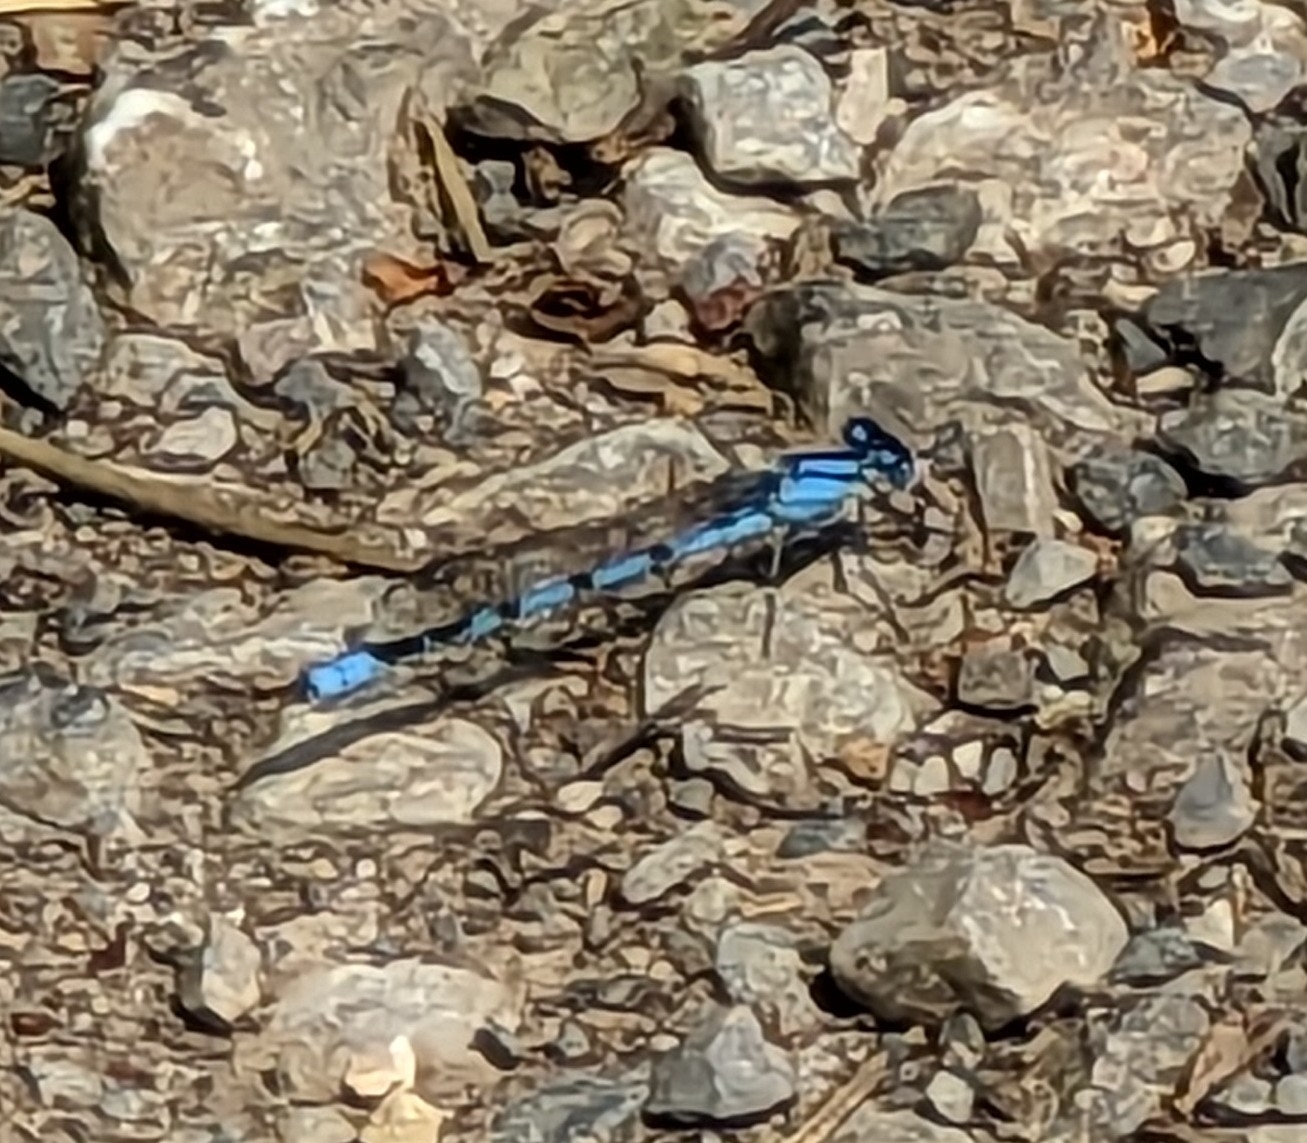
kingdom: Animalia
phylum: Arthropoda
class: Insecta
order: Odonata
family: Coenagrionidae
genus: Enallagma
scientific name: Enallagma cyathigerum
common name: Common blue damselfly
